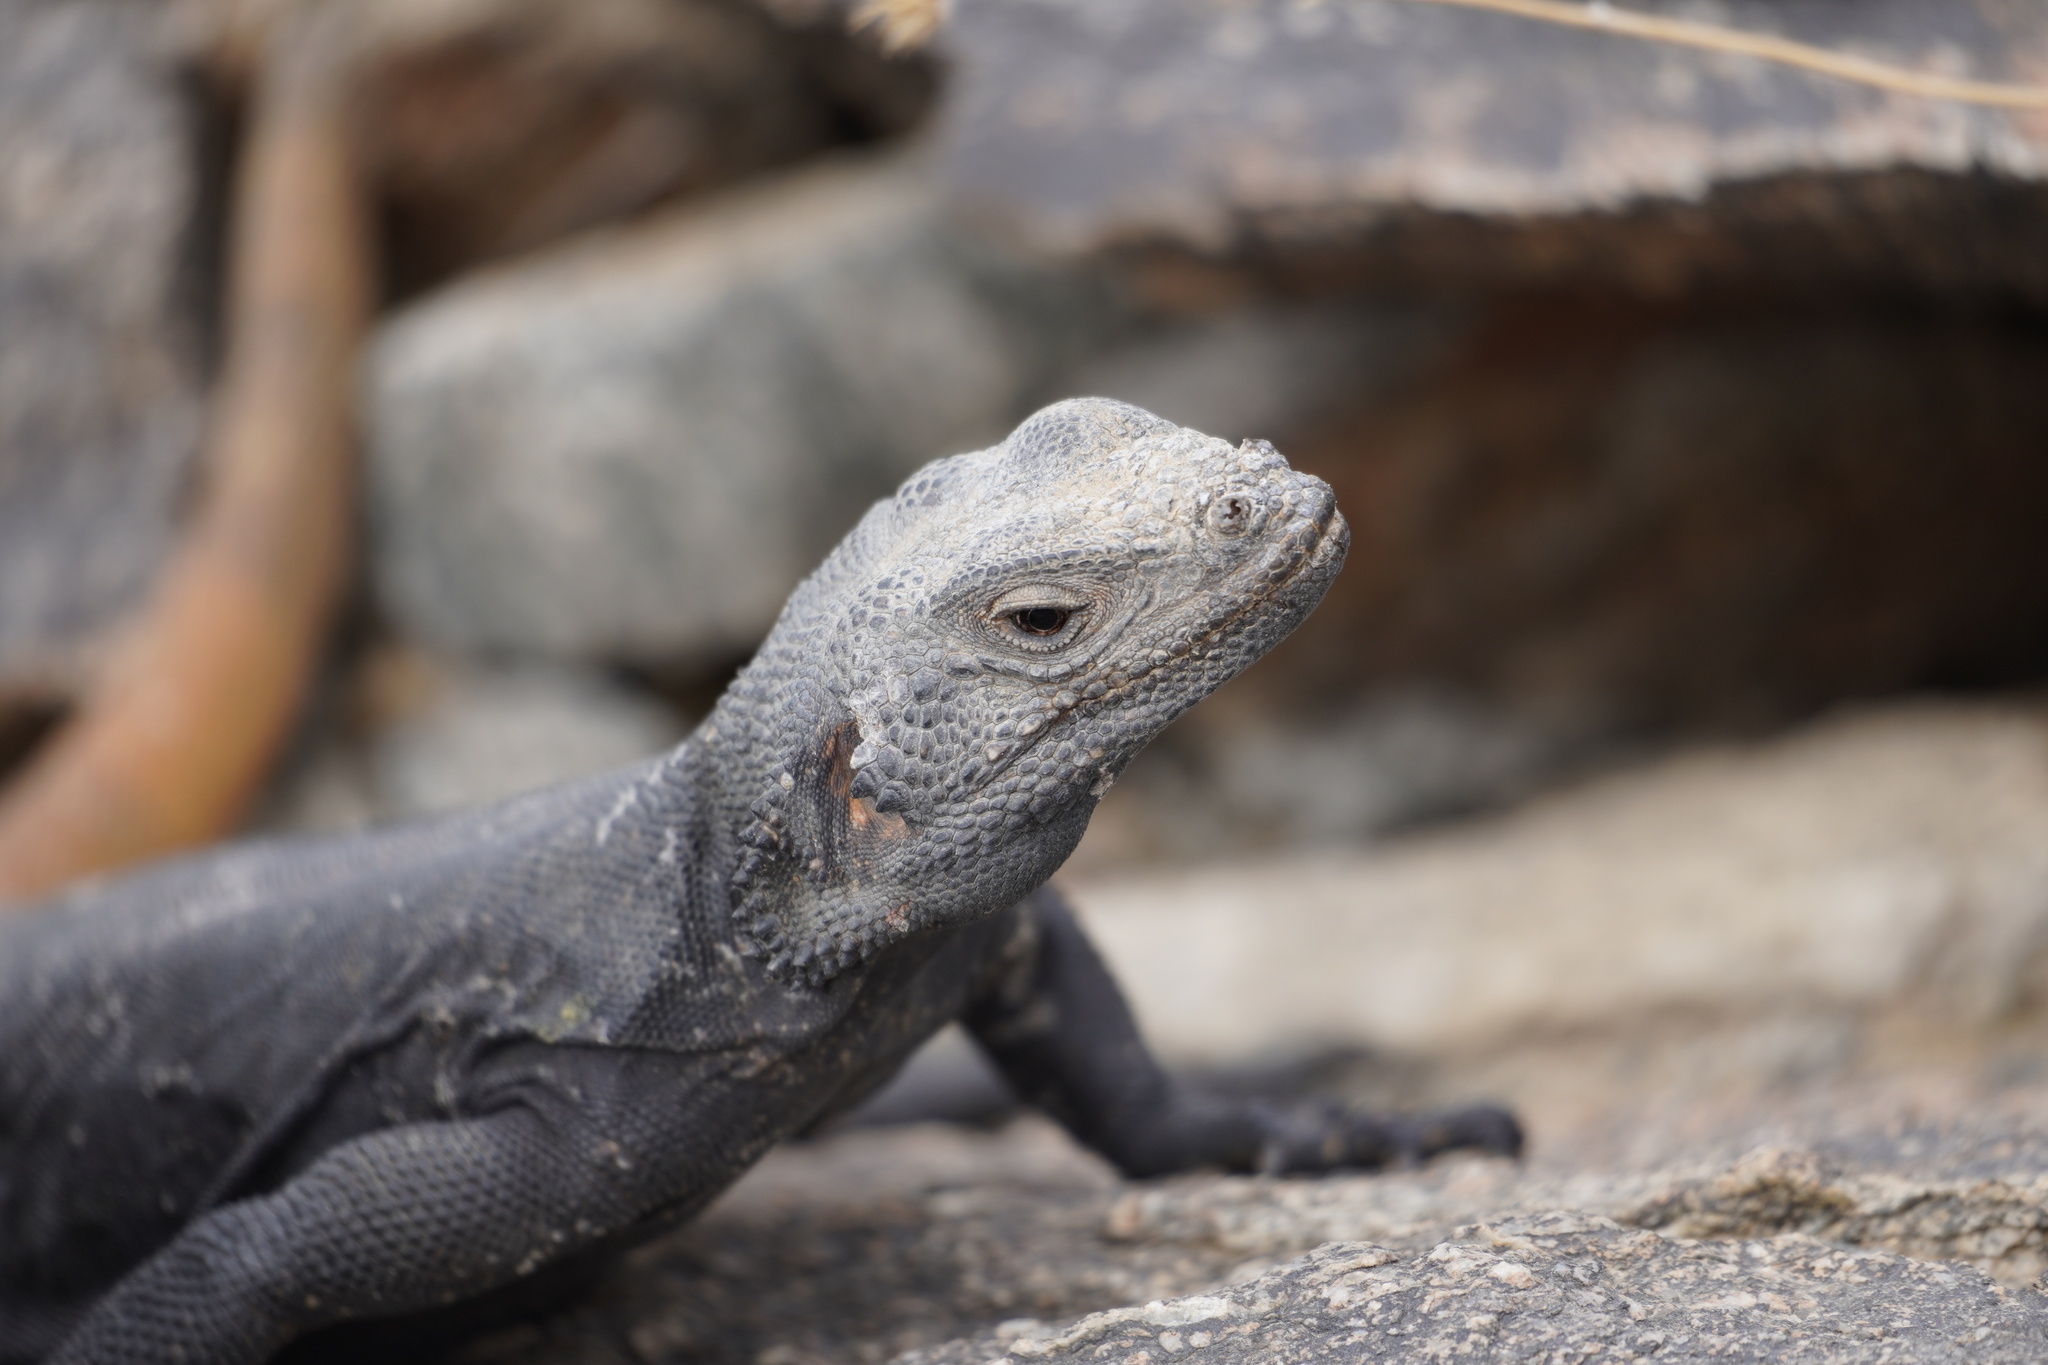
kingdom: Animalia
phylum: Chordata
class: Squamata
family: Iguanidae
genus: Sauromalus
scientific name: Sauromalus ater
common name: Northern chuckwalla
